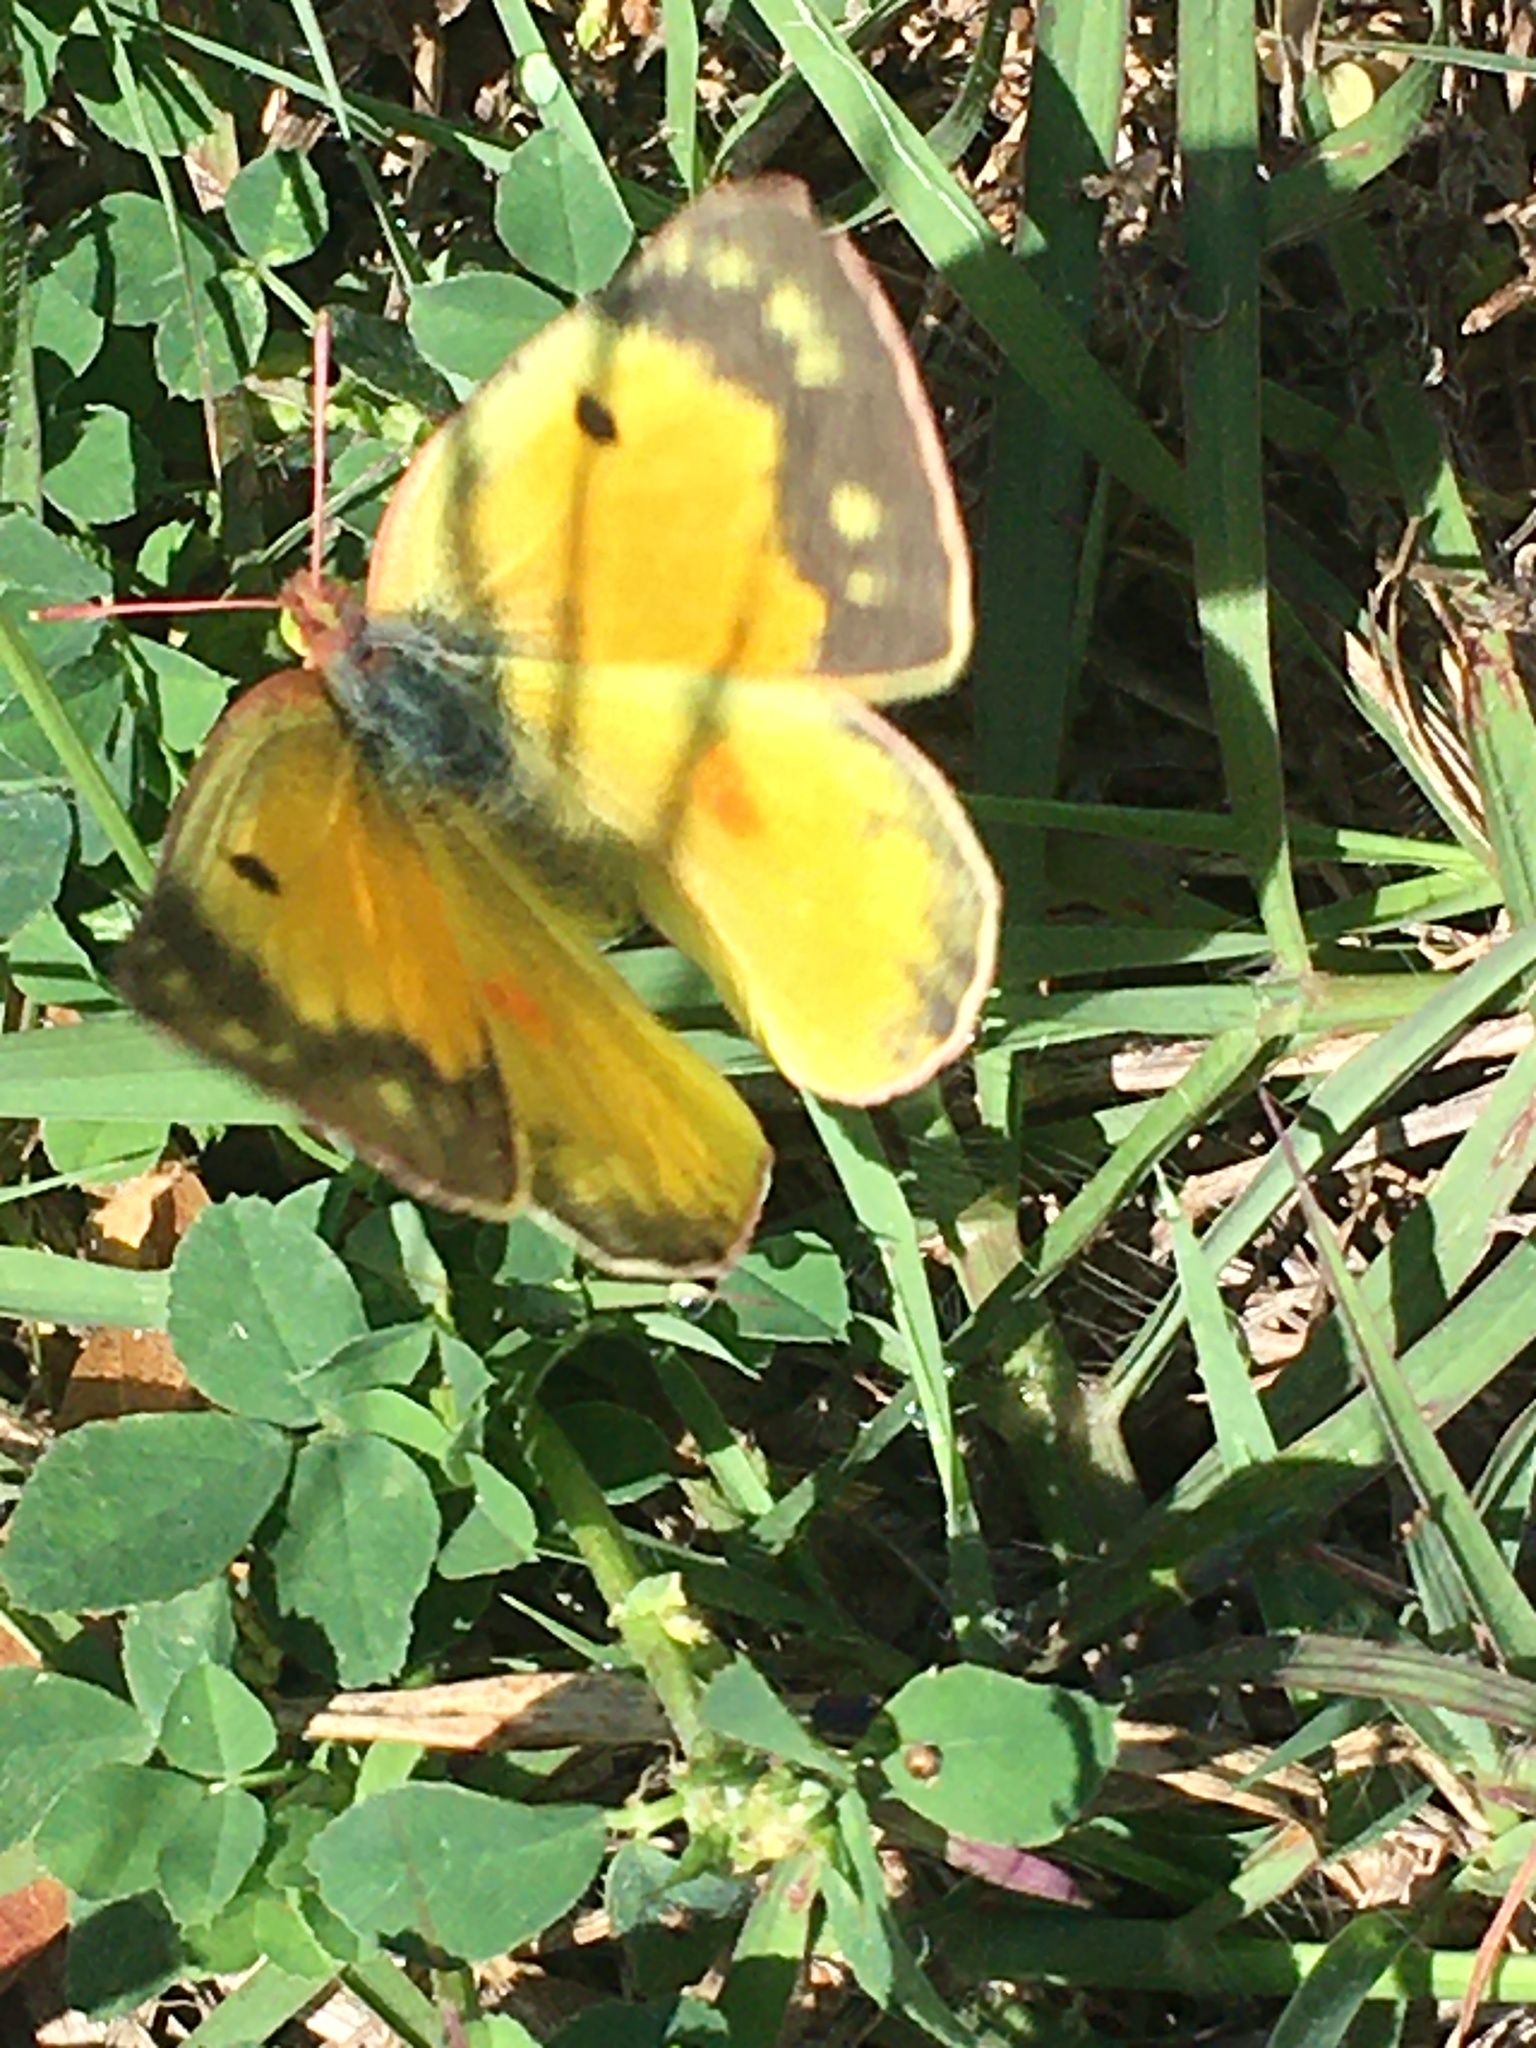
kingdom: Animalia
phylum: Arthropoda
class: Insecta
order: Lepidoptera
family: Pieridae
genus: Colias
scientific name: Colias eurytheme
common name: Alfalfa butterfly
